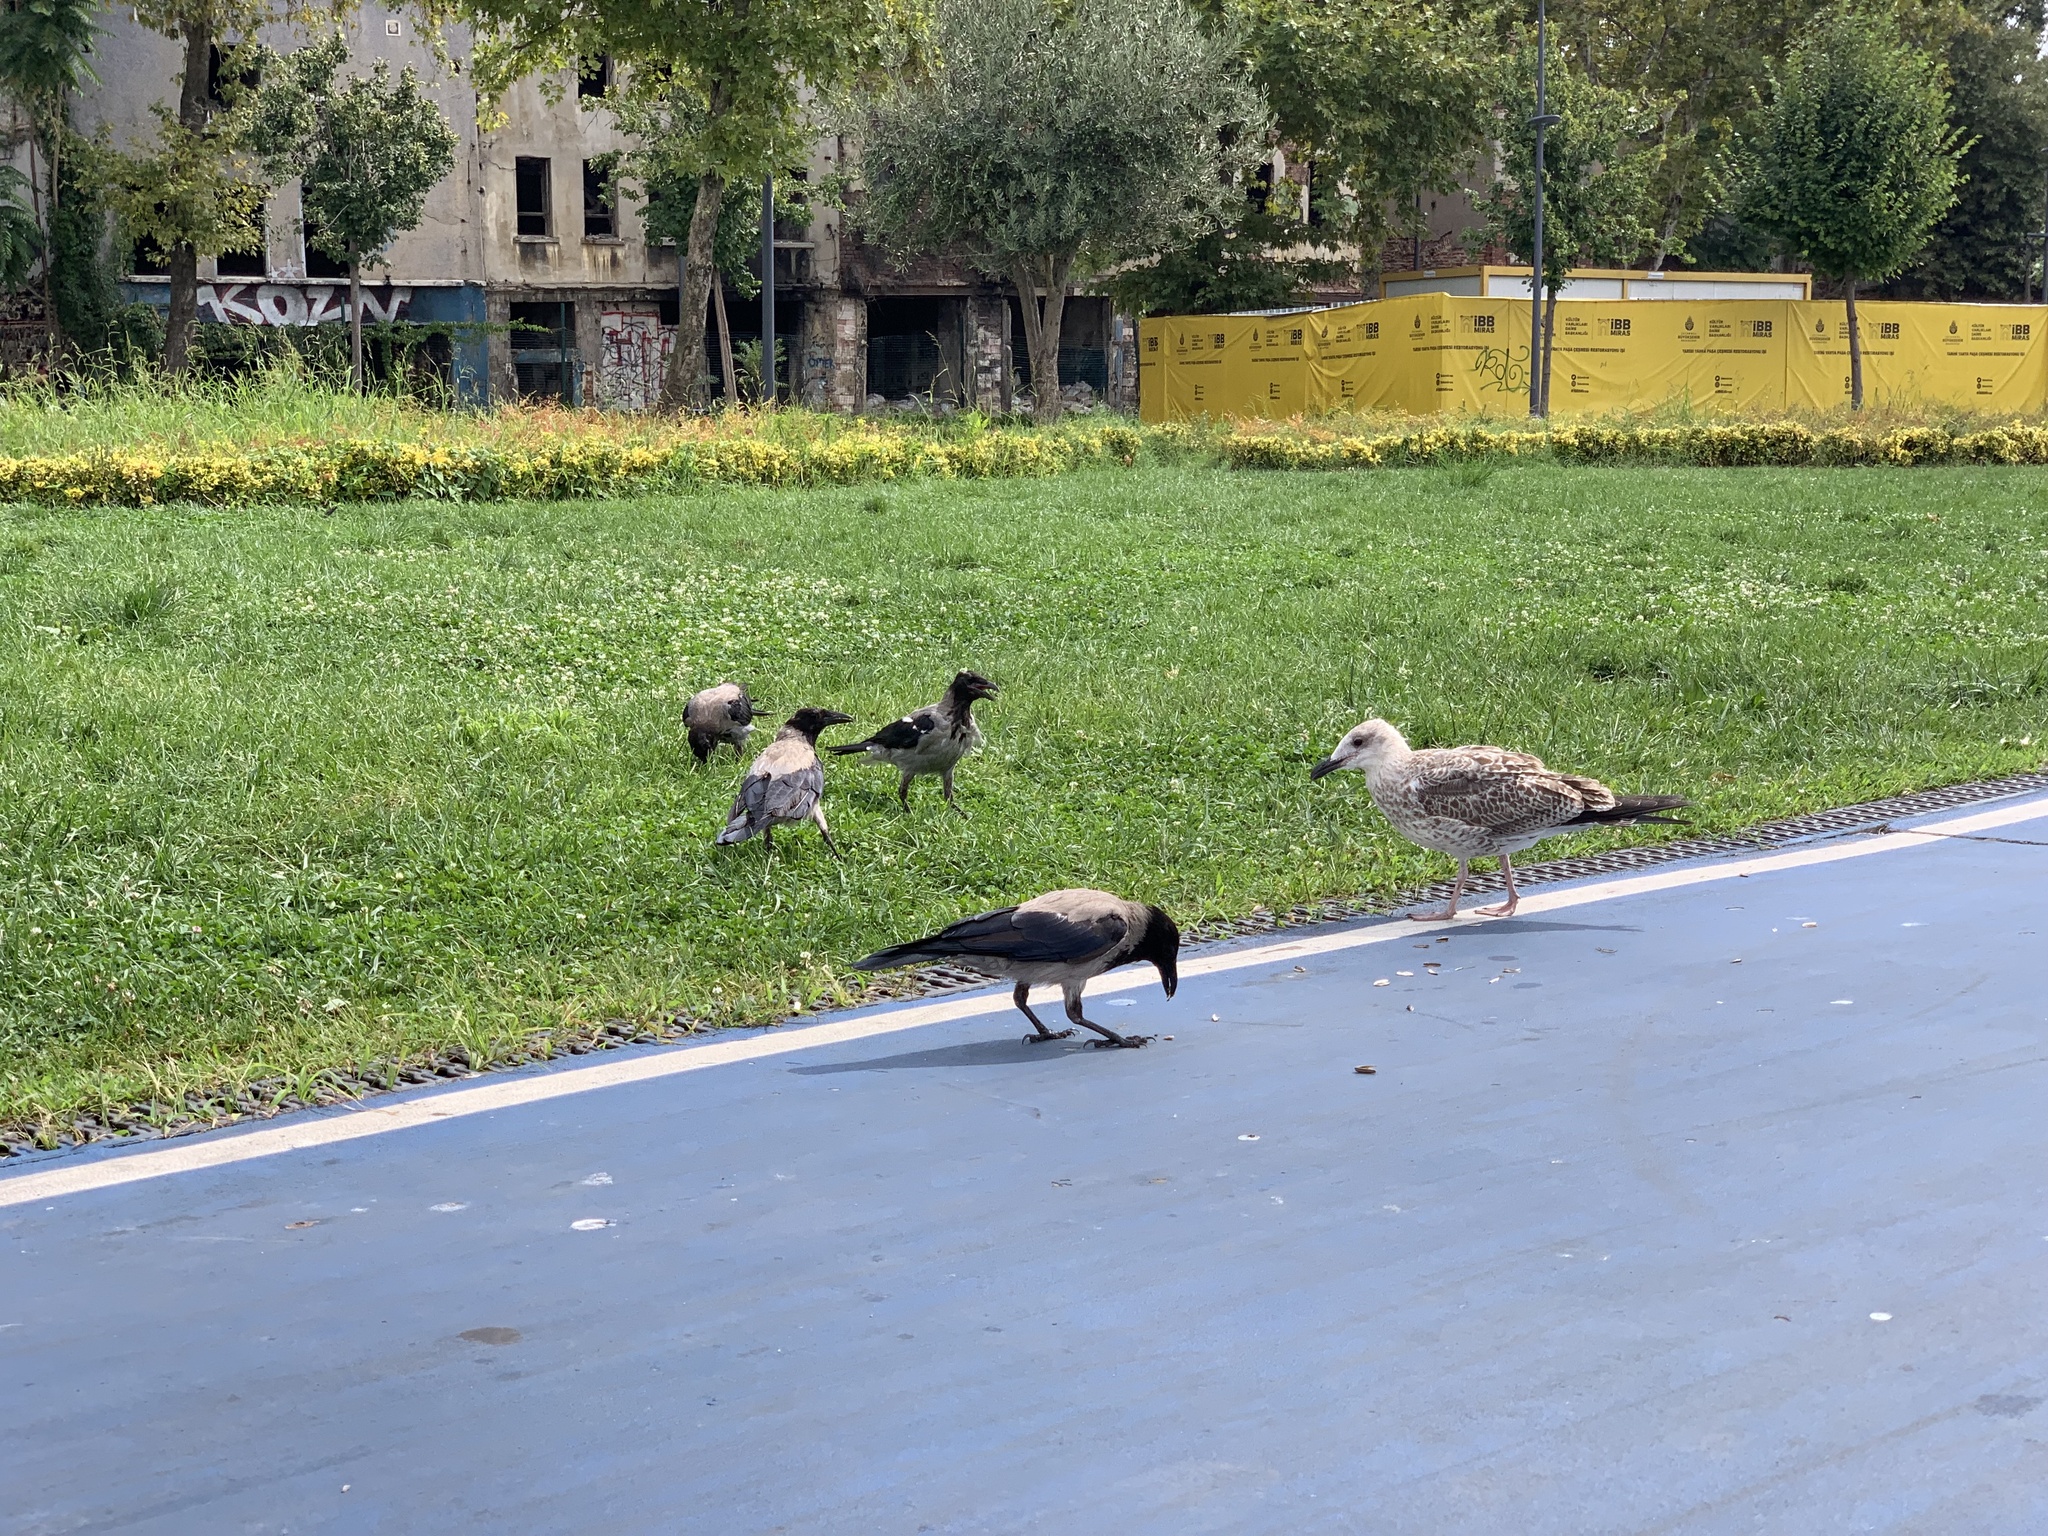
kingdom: Animalia
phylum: Chordata
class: Aves
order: Passeriformes
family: Corvidae
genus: Corvus
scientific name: Corvus cornix
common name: Hooded crow
